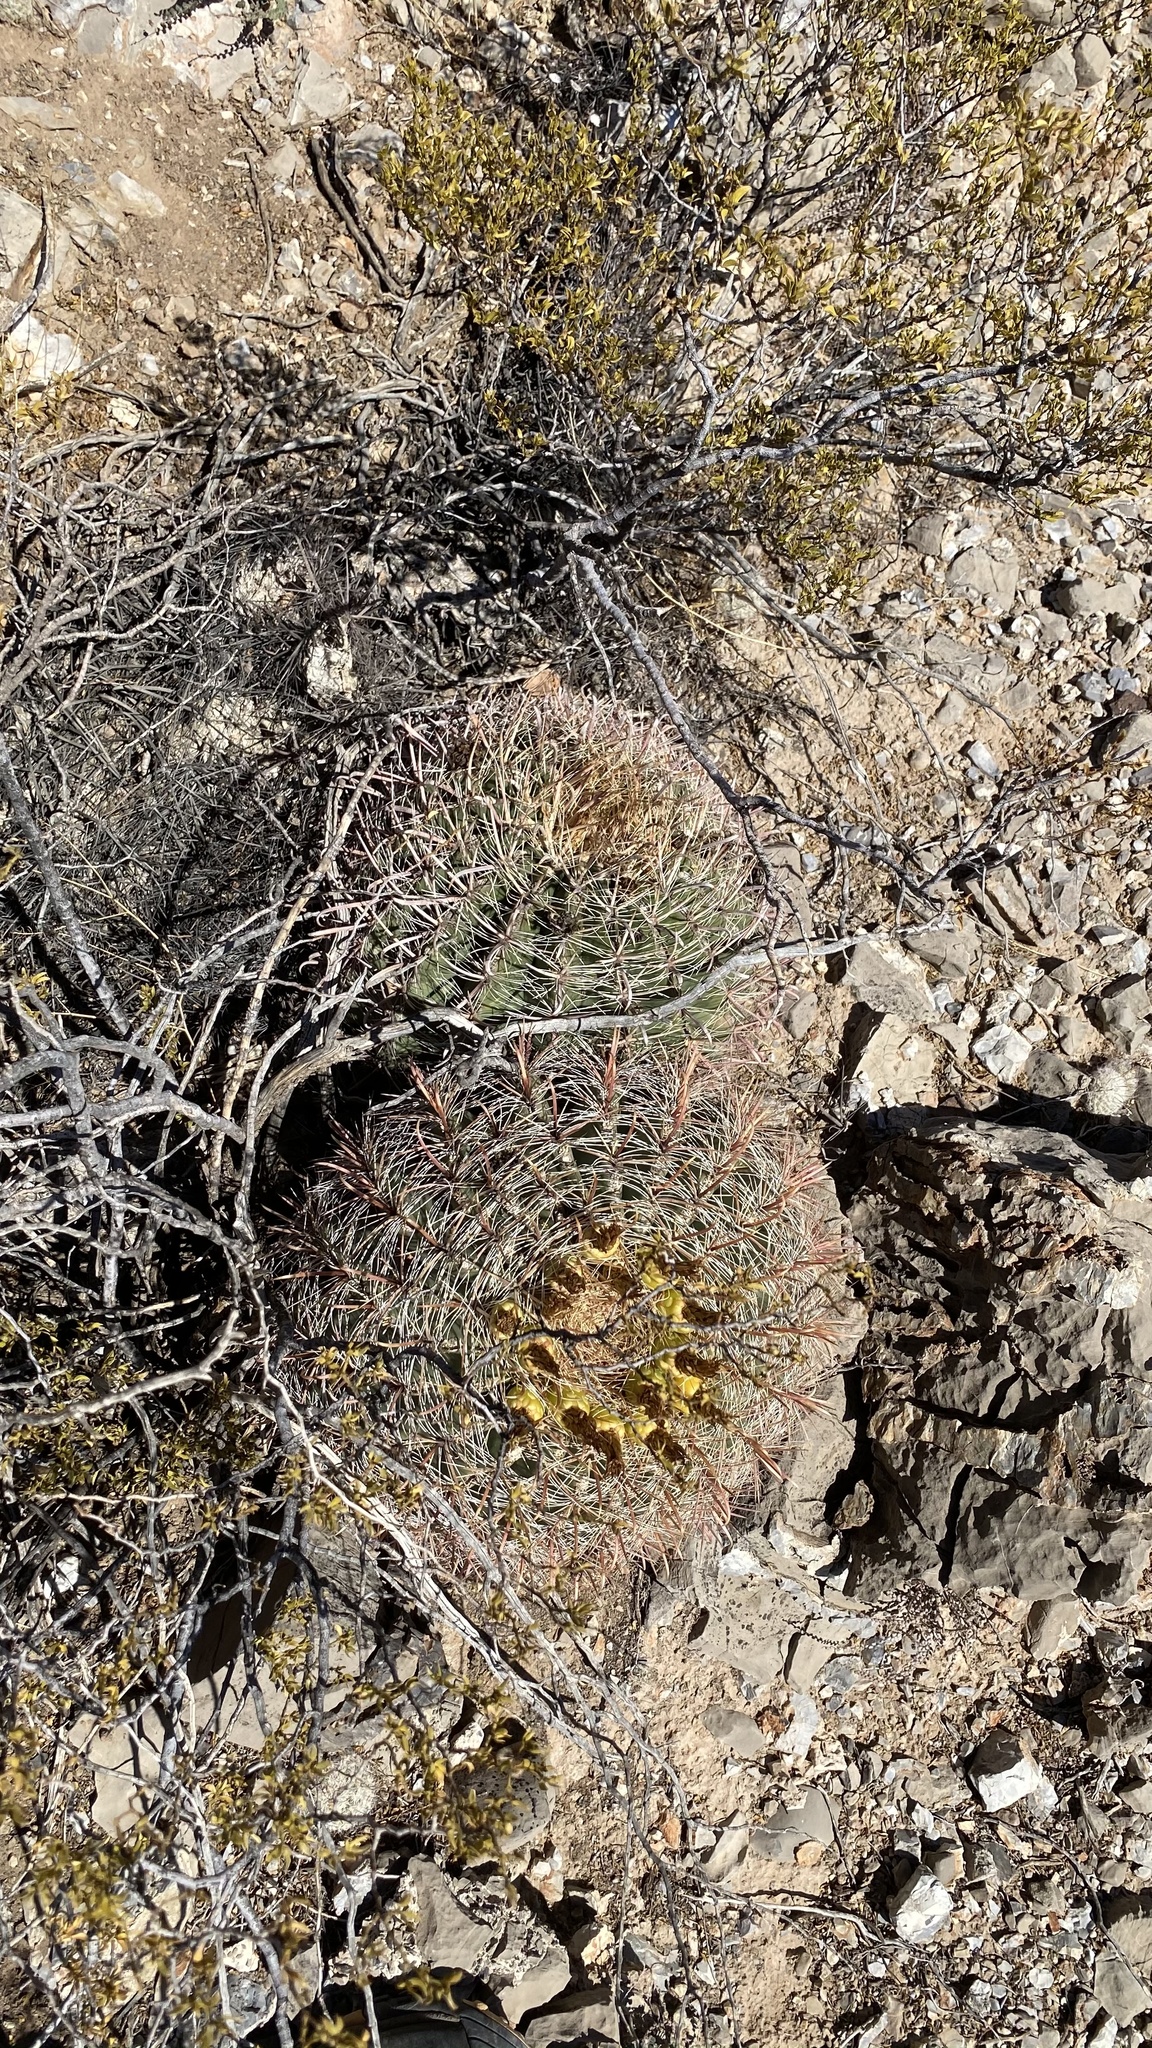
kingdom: Plantae
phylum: Tracheophyta
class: Magnoliopsida
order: Caryophyllales
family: Cactaceae
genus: Ferocactus
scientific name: Ferocactus wislizeni
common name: Candy barrel cactus
